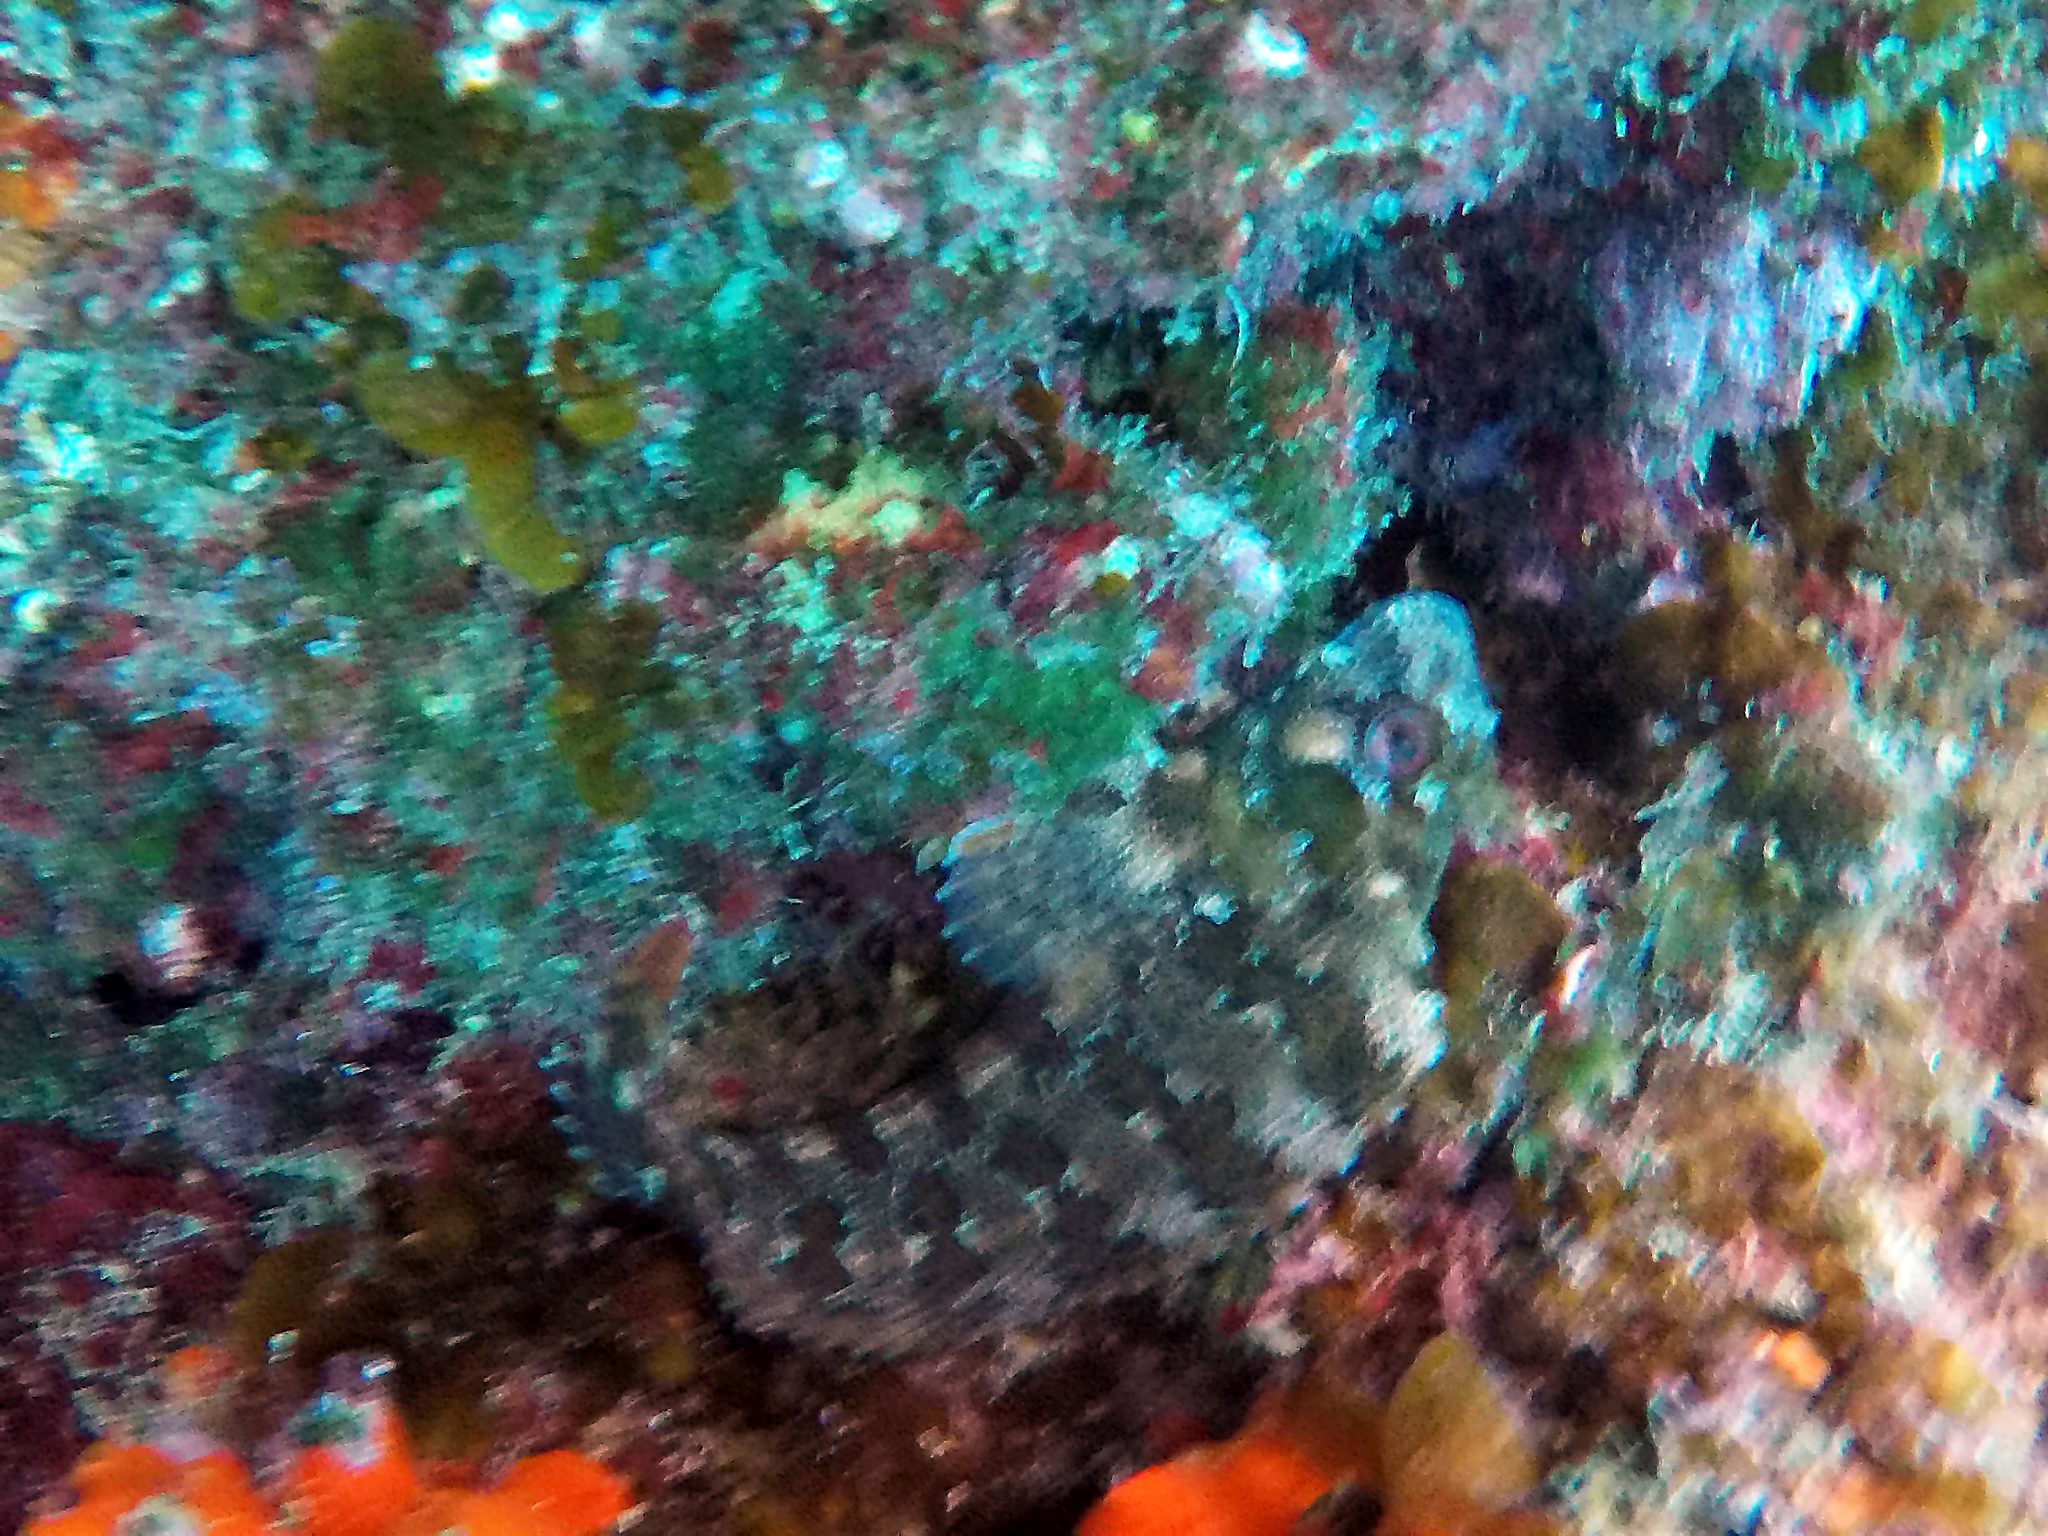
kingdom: Animalia
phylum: Chordata
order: Perciformes
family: Blenniidae
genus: Parablennius
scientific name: Parablennius gattorugine
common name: Tompot blenny
